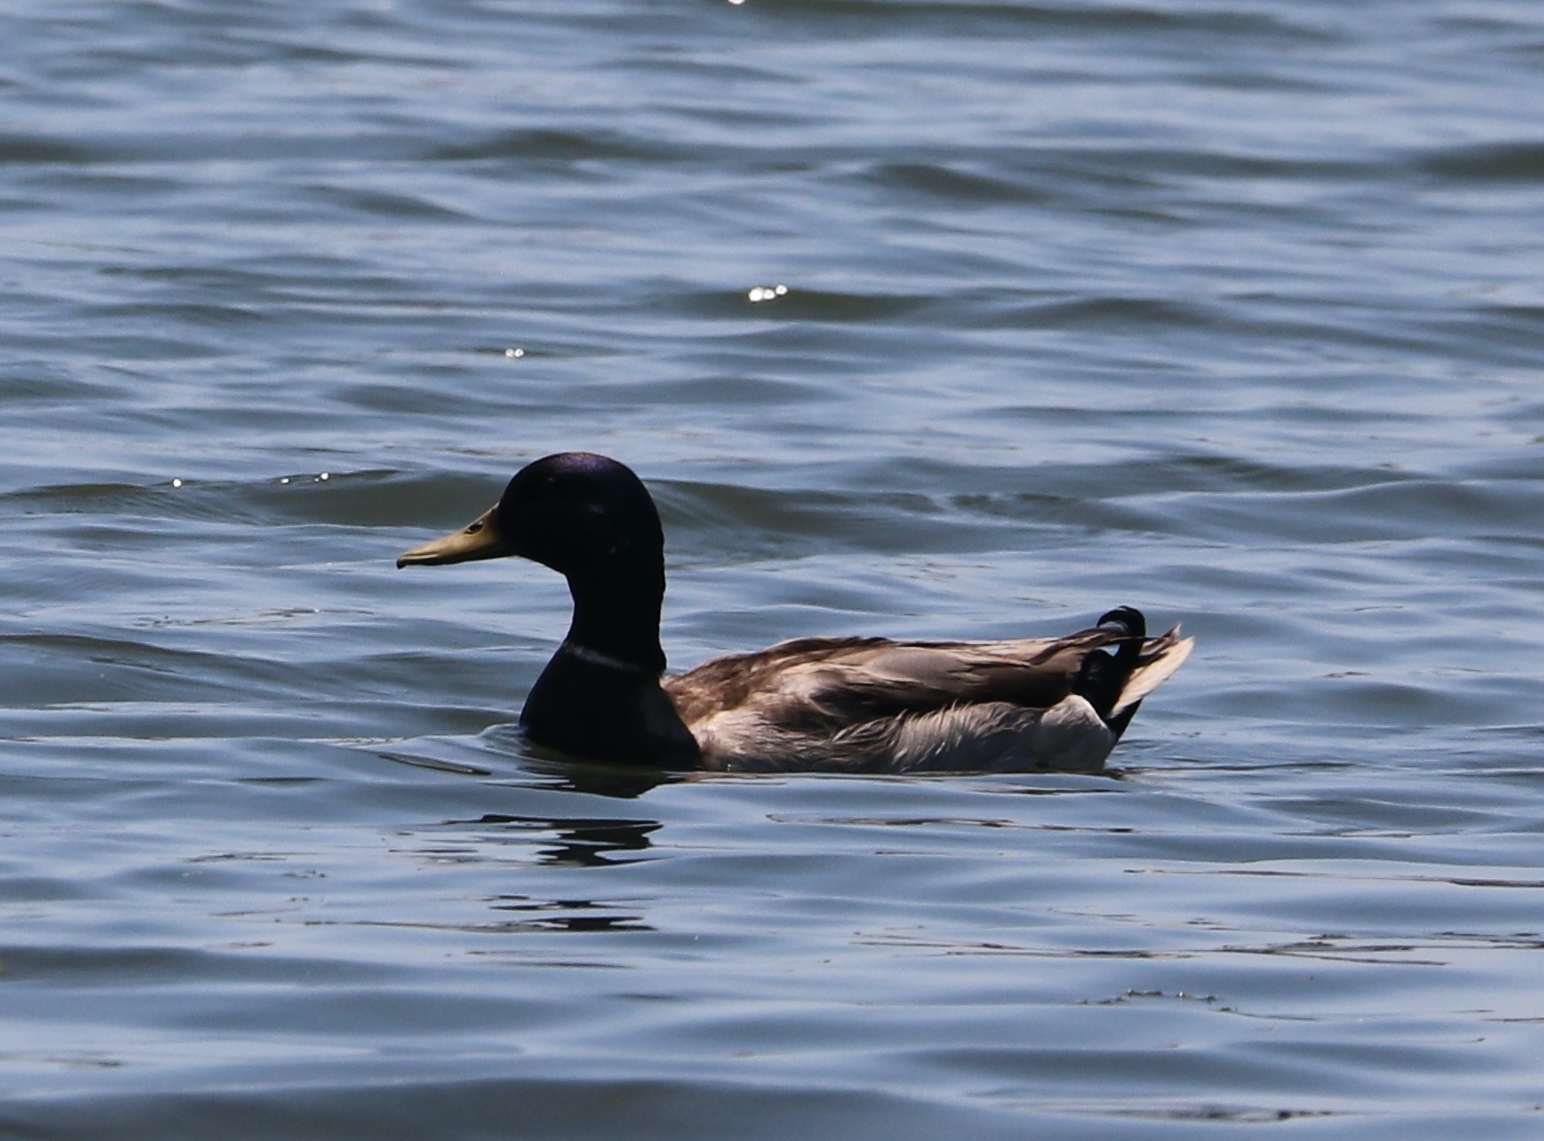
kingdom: Animalia
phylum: Chordata
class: Aves
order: Anseriformes
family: Anatidae
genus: Anas
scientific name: Anas platyrhynchos
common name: Mallard
